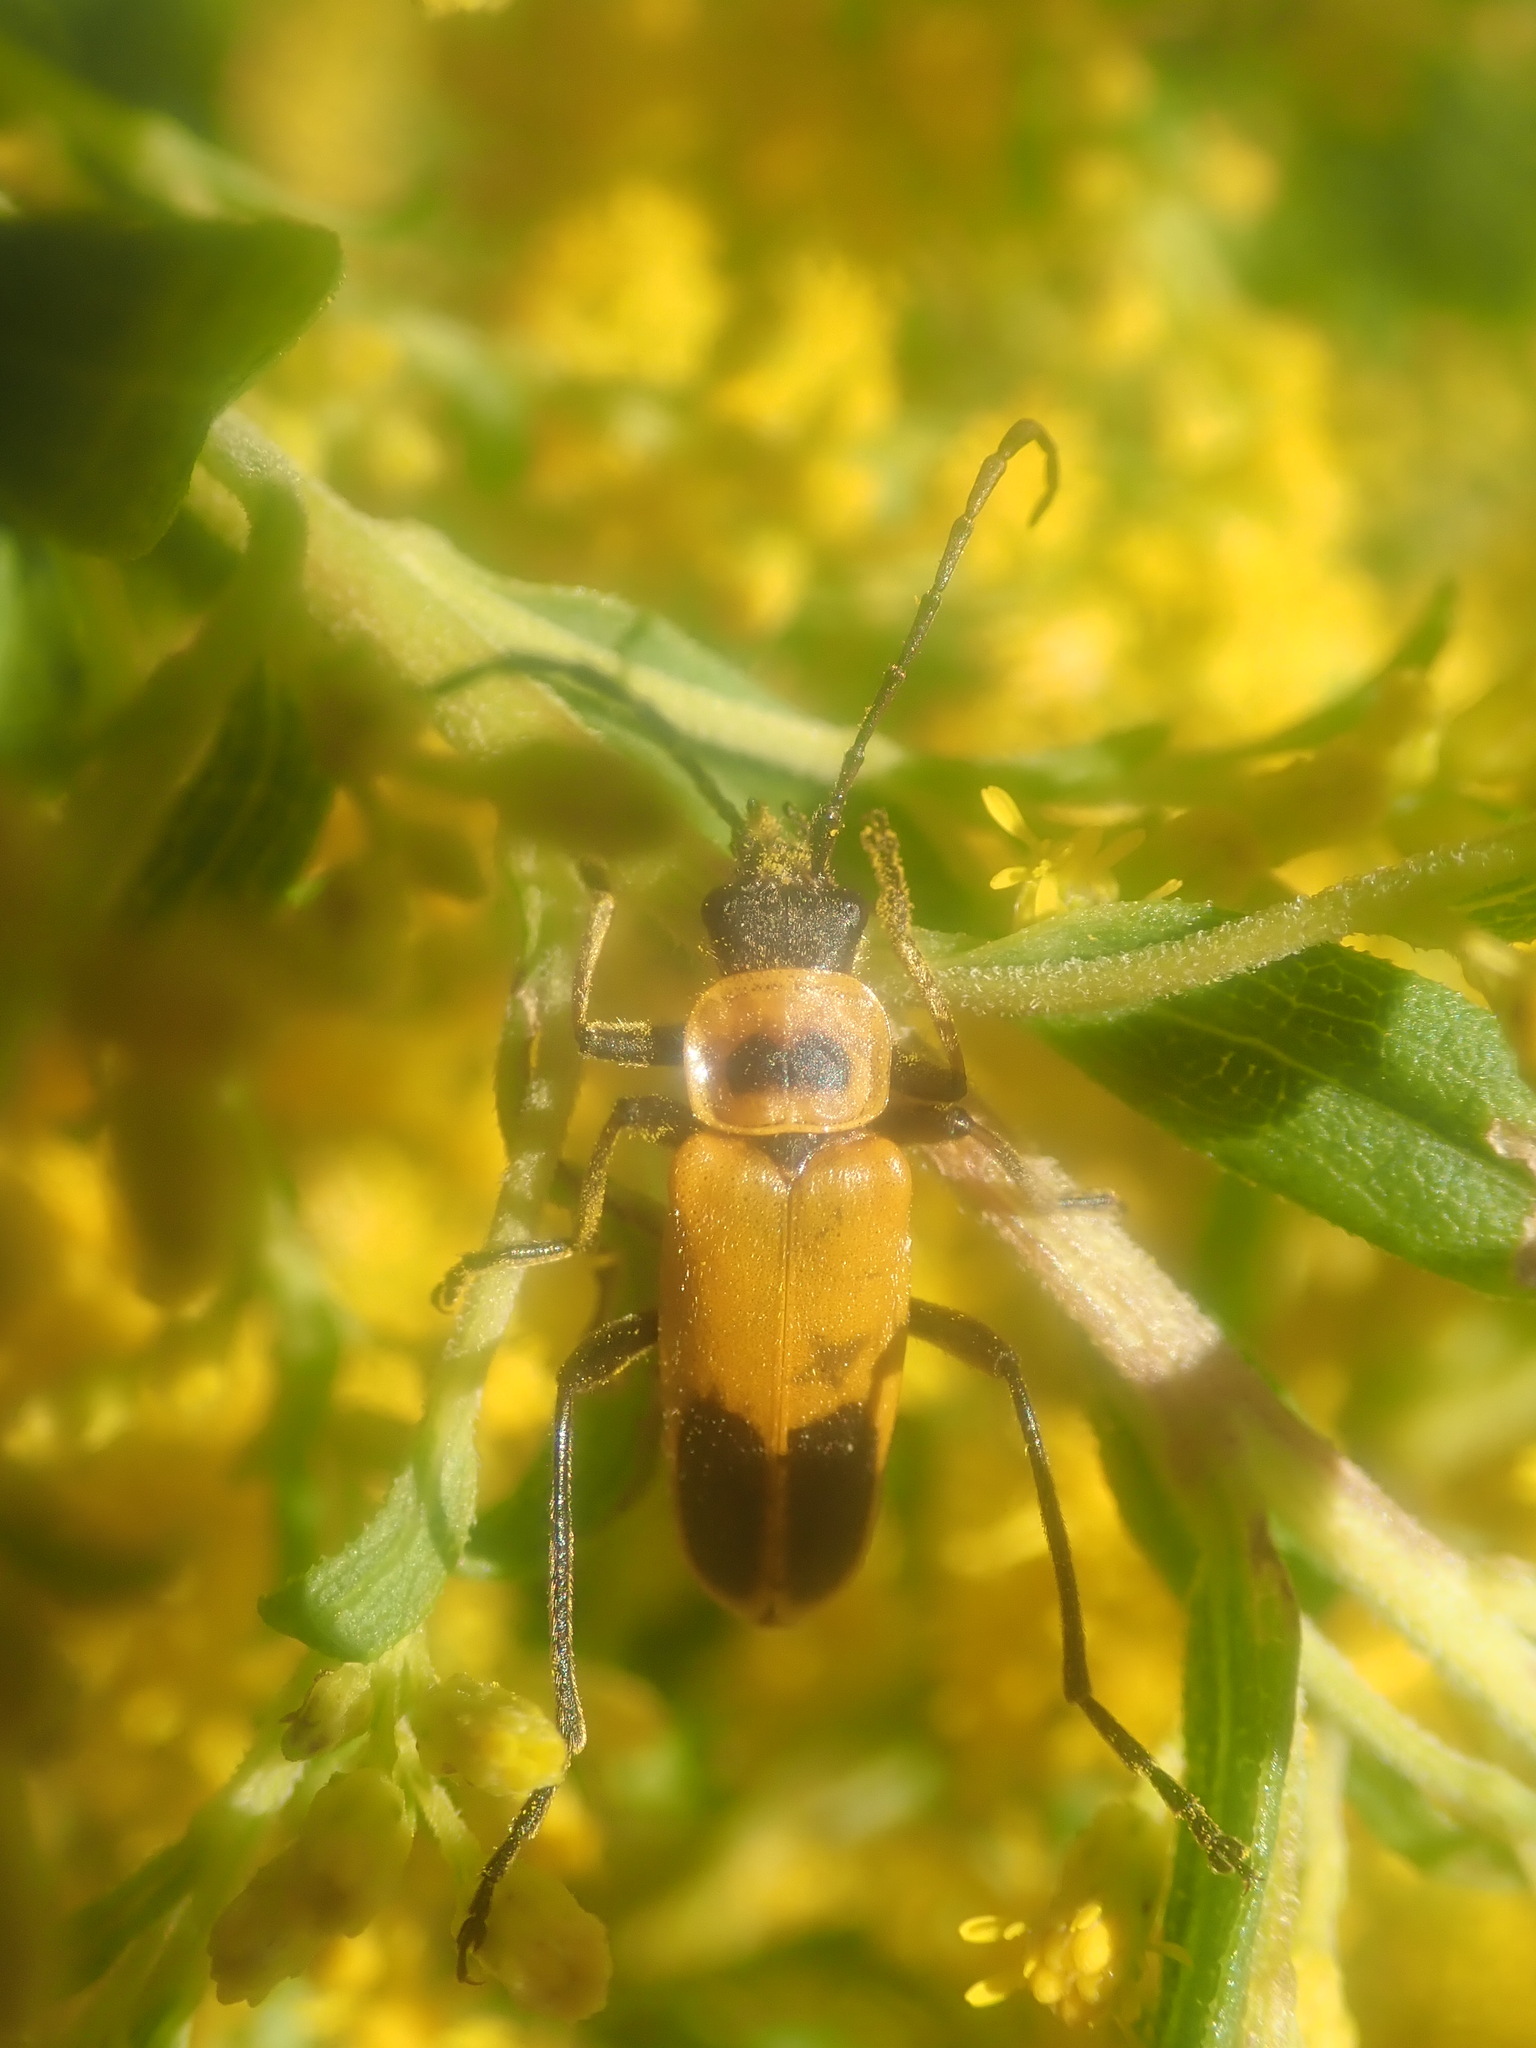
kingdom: Animalia
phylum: Arthropoda
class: Insecta
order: Coleoptera
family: Cantharidae
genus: Chauliognathus
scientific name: Chauliognathus pensylvanicus
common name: Goldenrod soldier beetle
